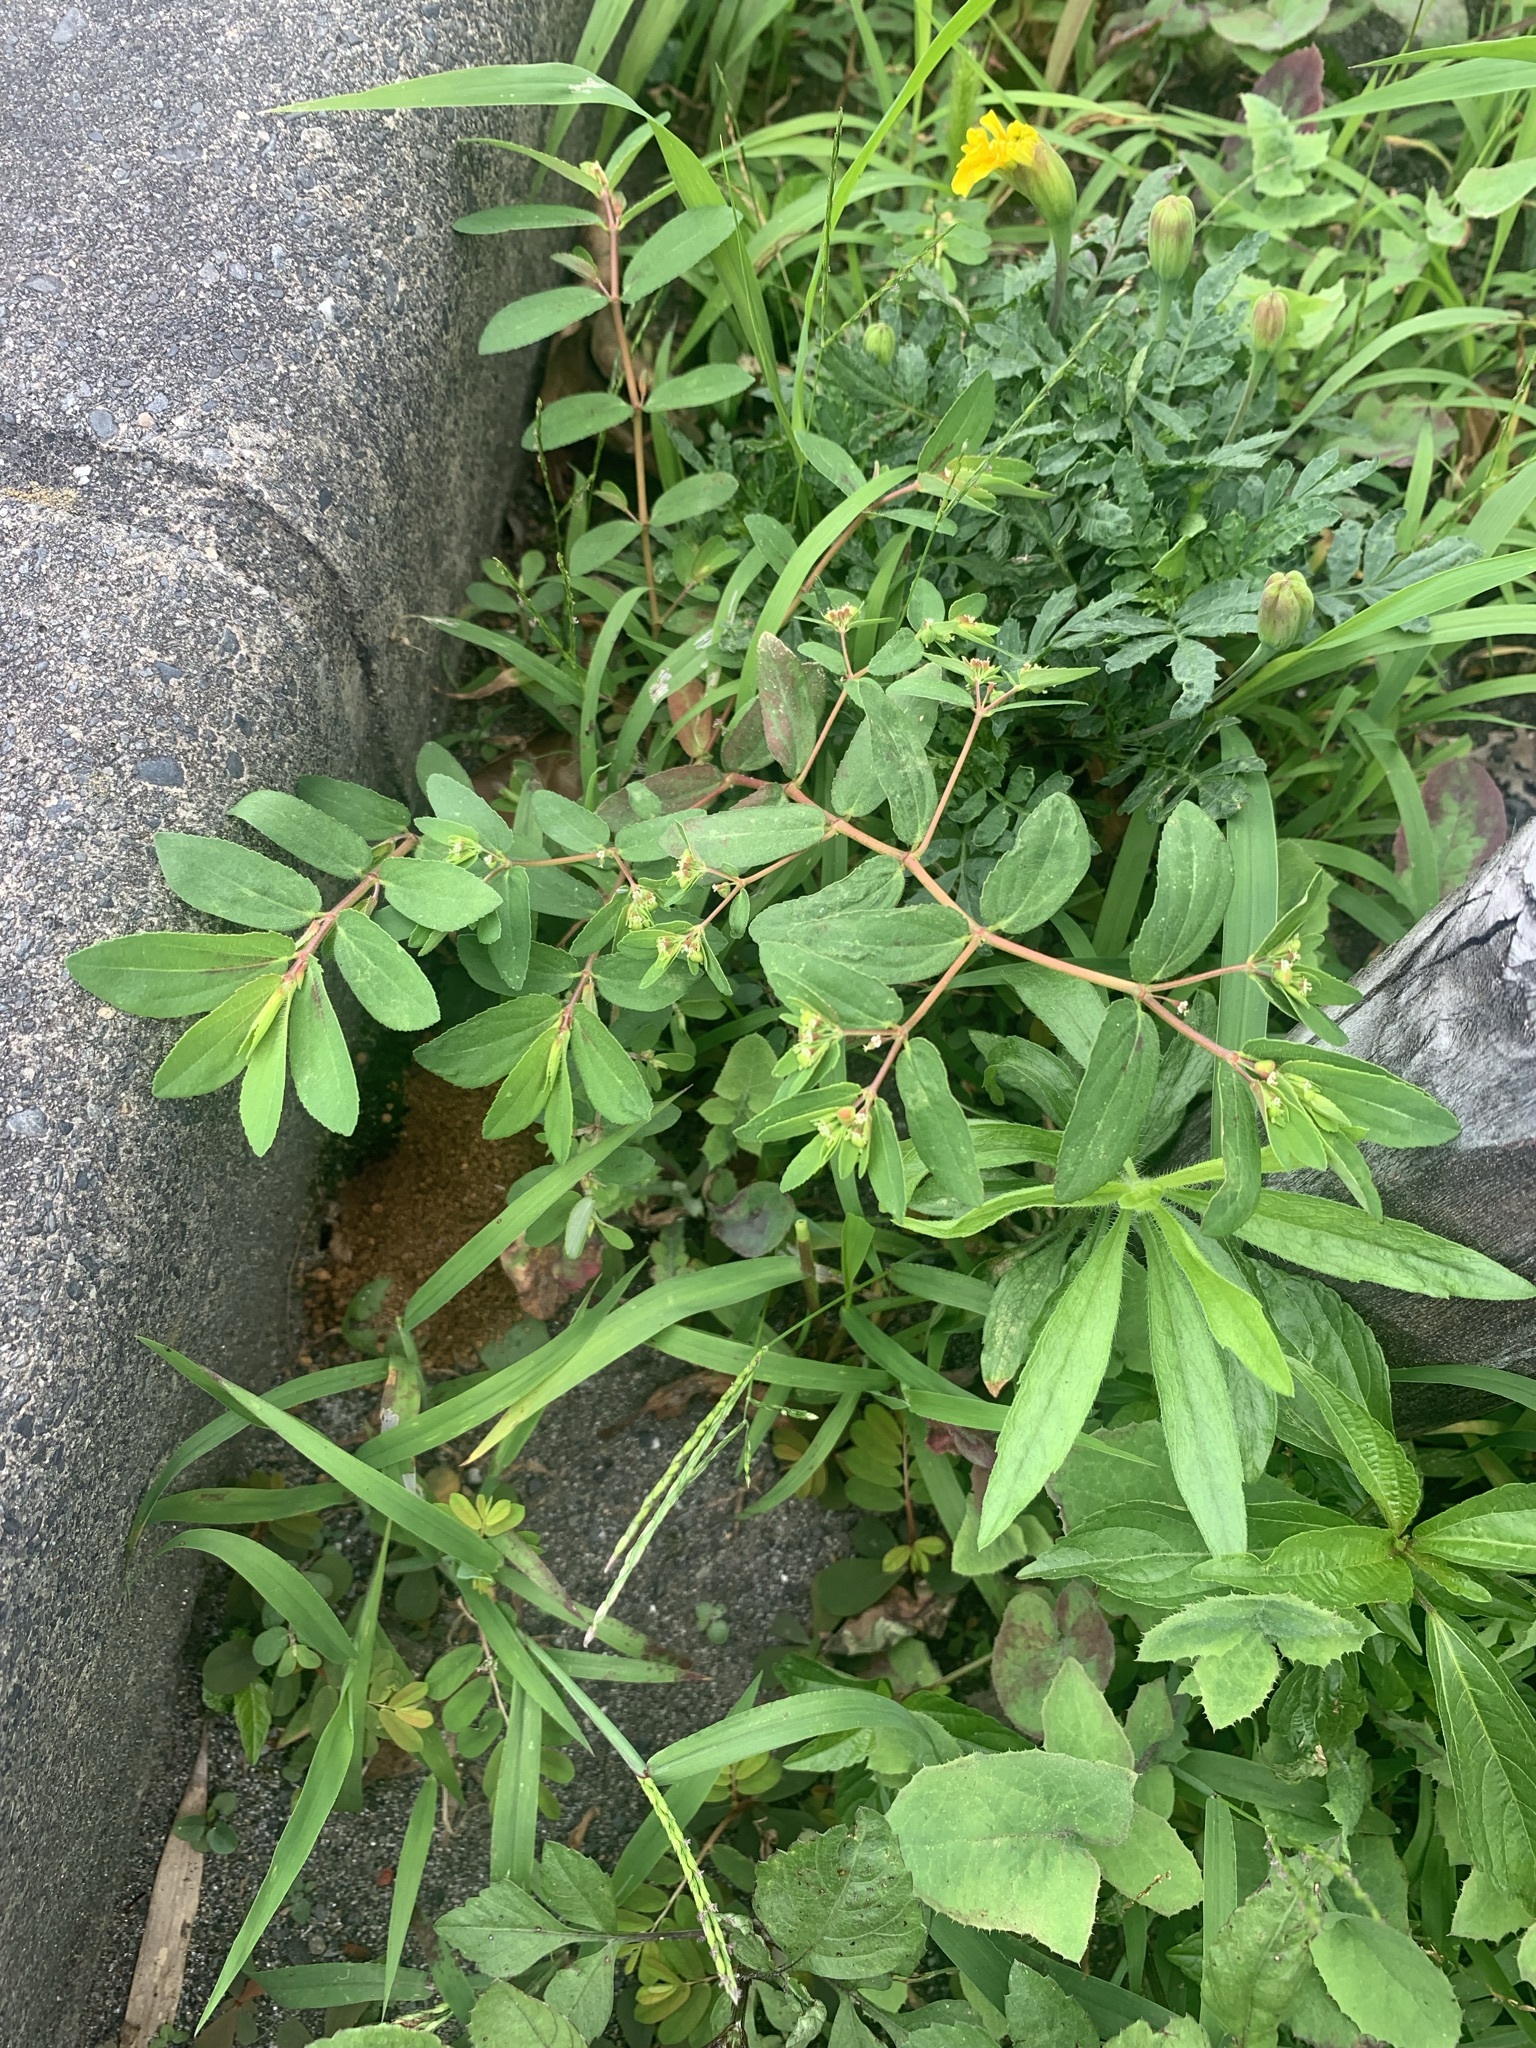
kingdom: Plantae
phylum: Tracheophyta
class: Magnoliopsida
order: Malpighiales
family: Euphorbiaceae
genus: Euphorbia
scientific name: Euphorbia nutans
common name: Eyebane
